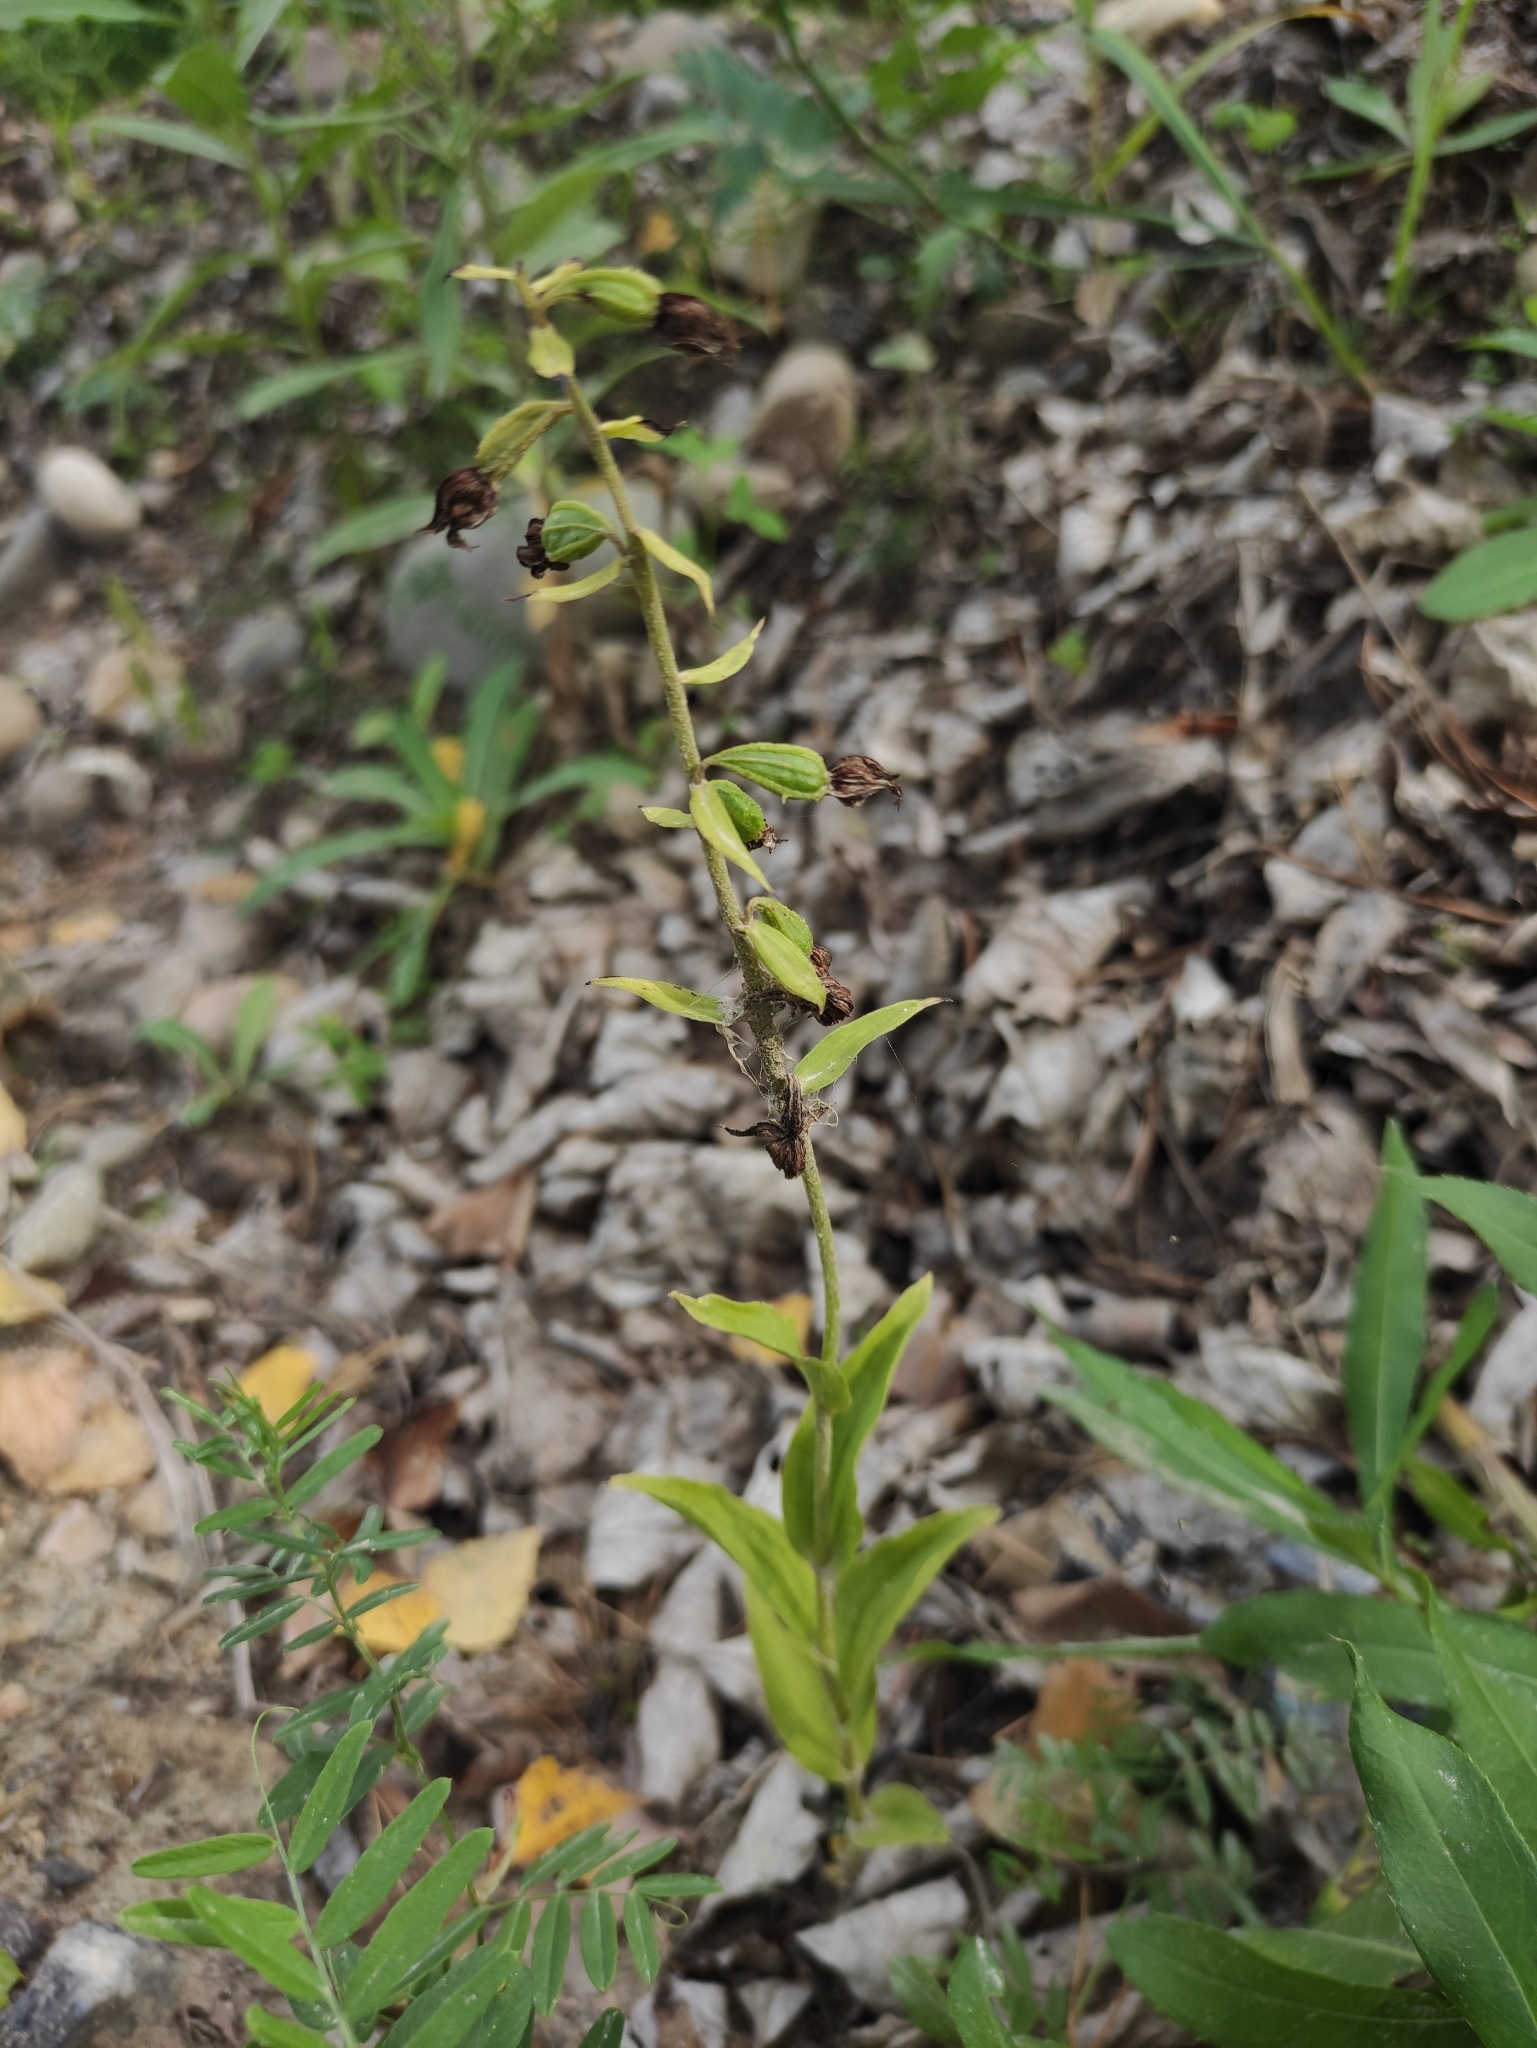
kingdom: Plantae
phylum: Tracheophyta
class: Liliopsida
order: Asparagales
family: Orchidaceae
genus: Epipactis
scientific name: Epipactis helleborine
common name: Broad-leaved helleborine
